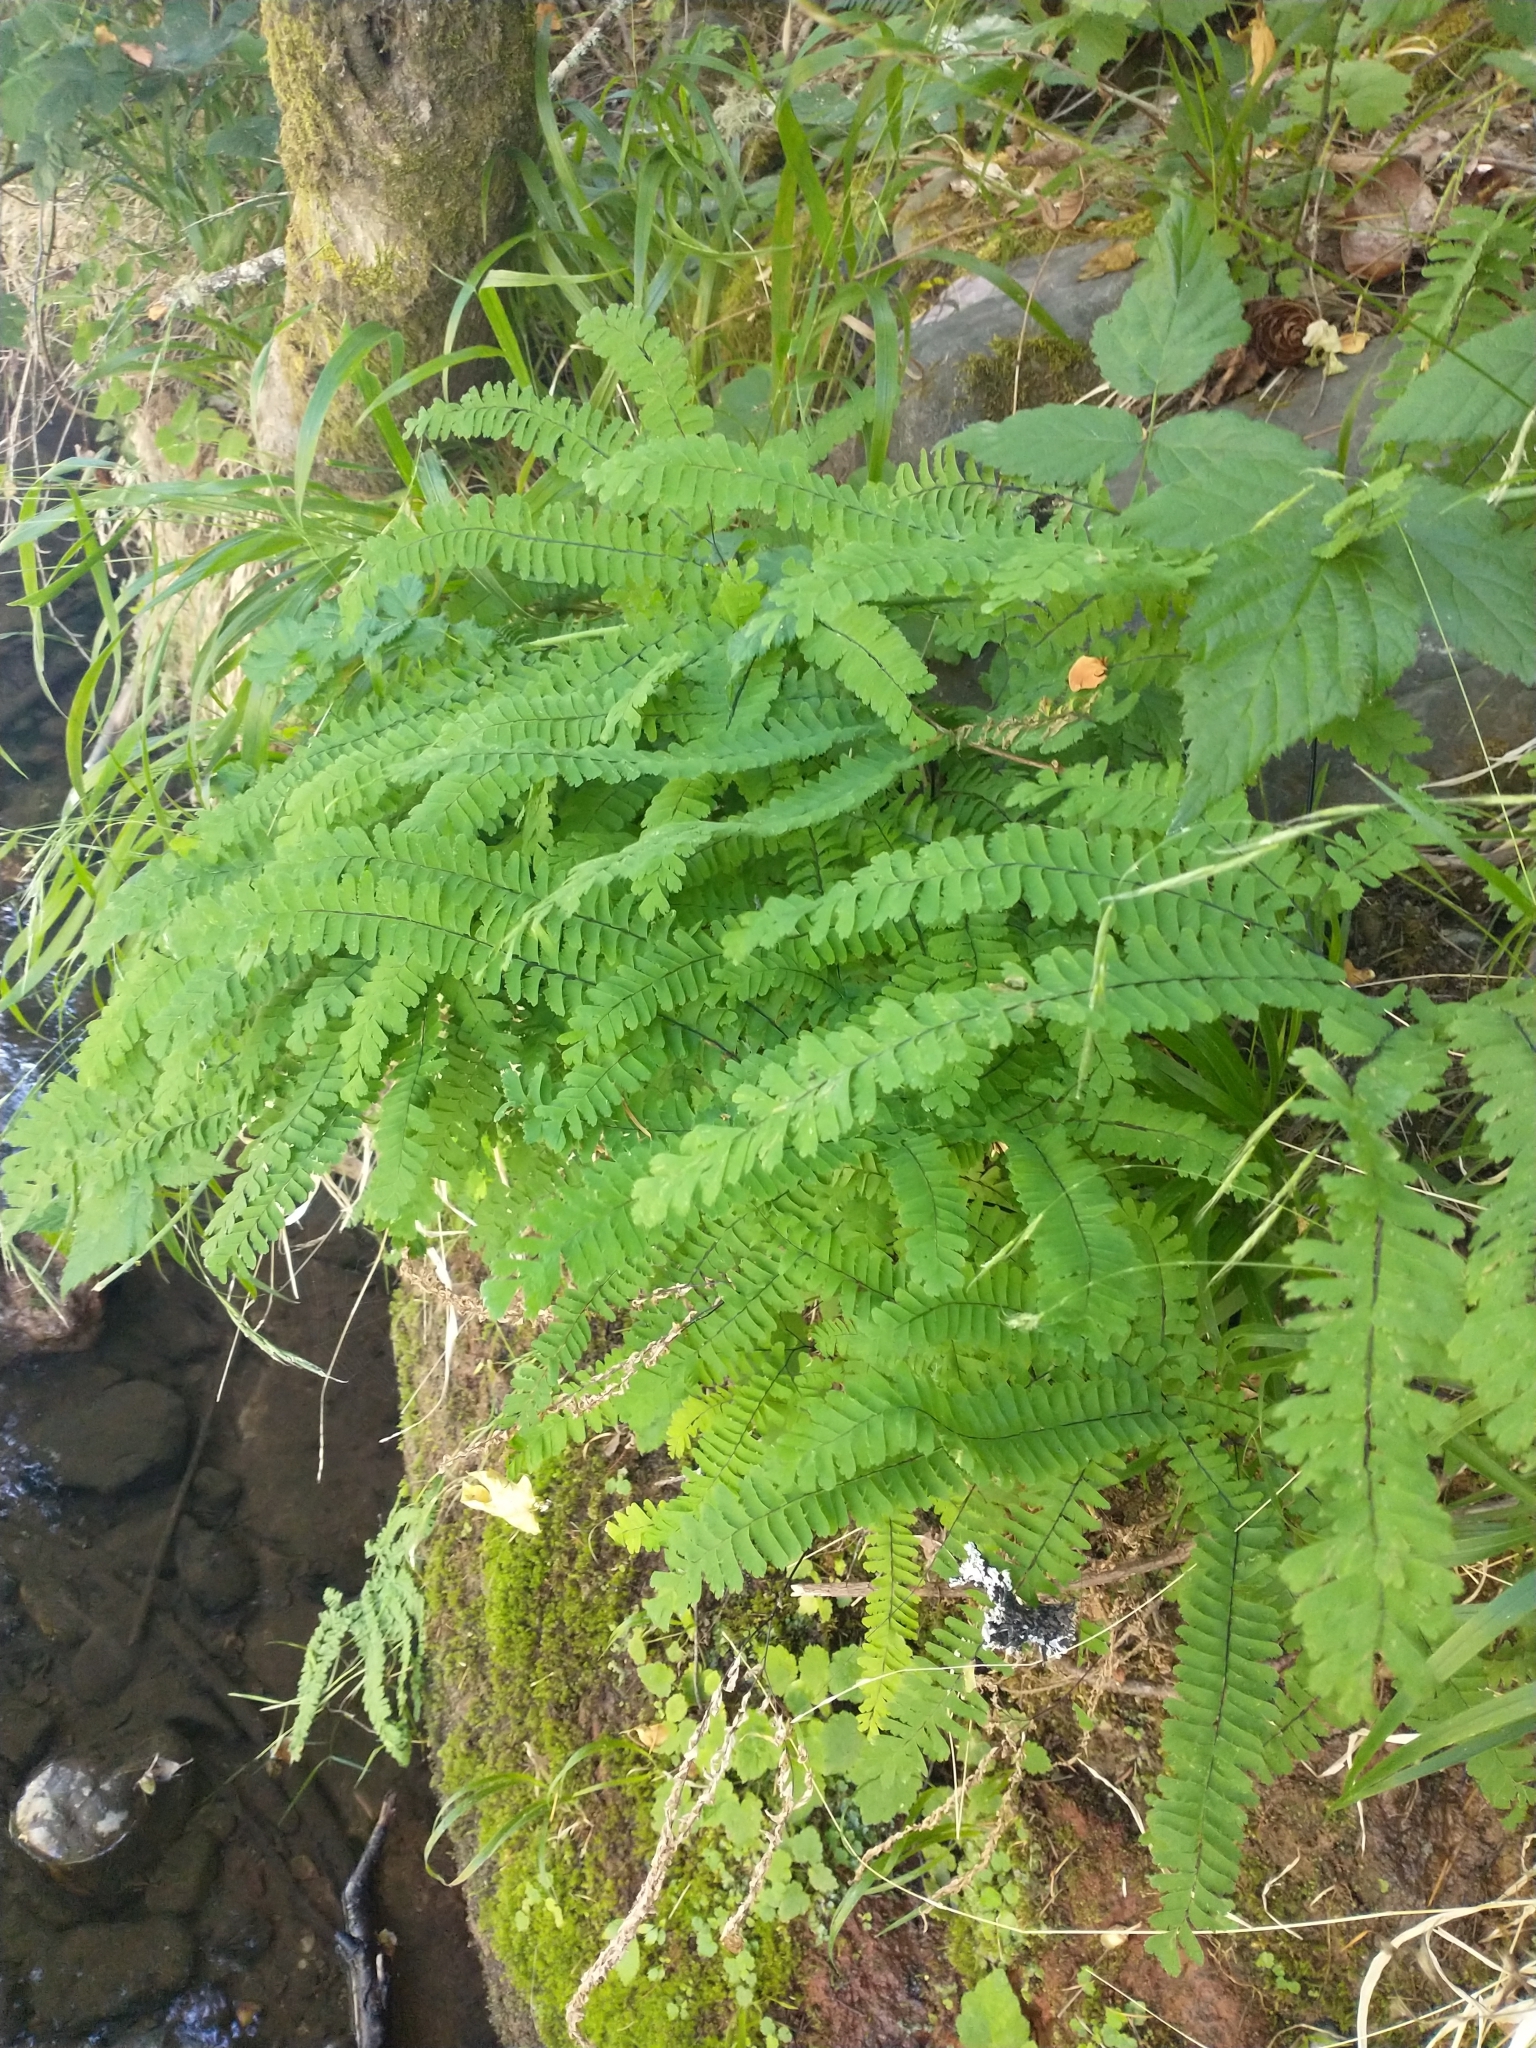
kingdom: Plantae
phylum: Tracheophyta
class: Polypodiopsida
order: Polypodiales
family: Pteridaceae
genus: Adiantum
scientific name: Adiantum aleuticum
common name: Aleutian maidenhair fern
